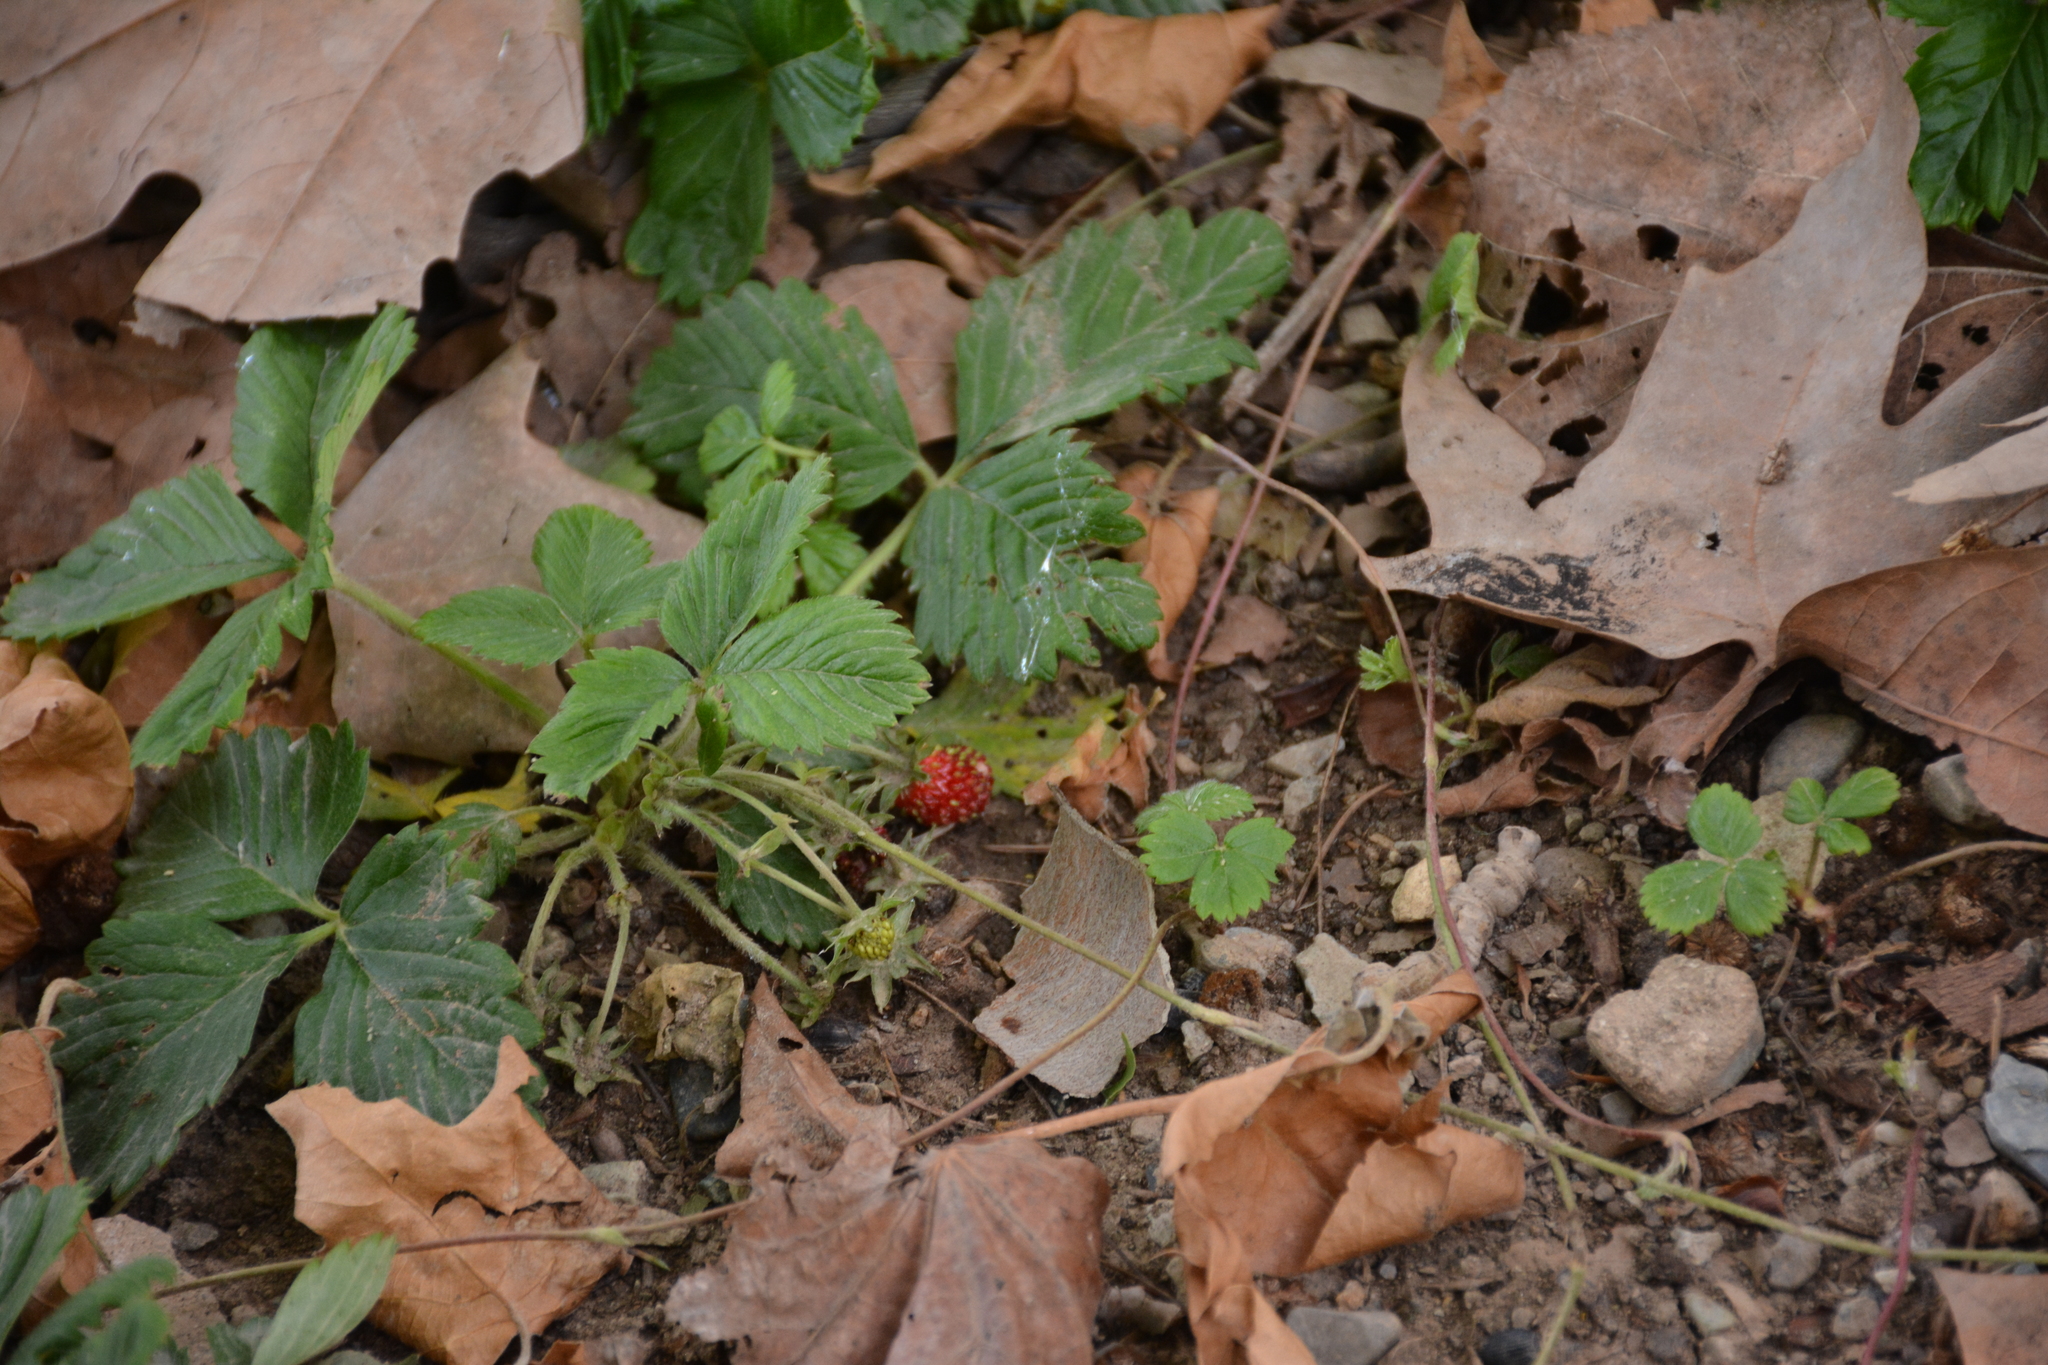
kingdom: Plantae
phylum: Tracheophyta
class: Magnoliopsida
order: Rosales
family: Rosaceae
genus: Fragaria
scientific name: Fragaria vesca
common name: Wild strawberry
